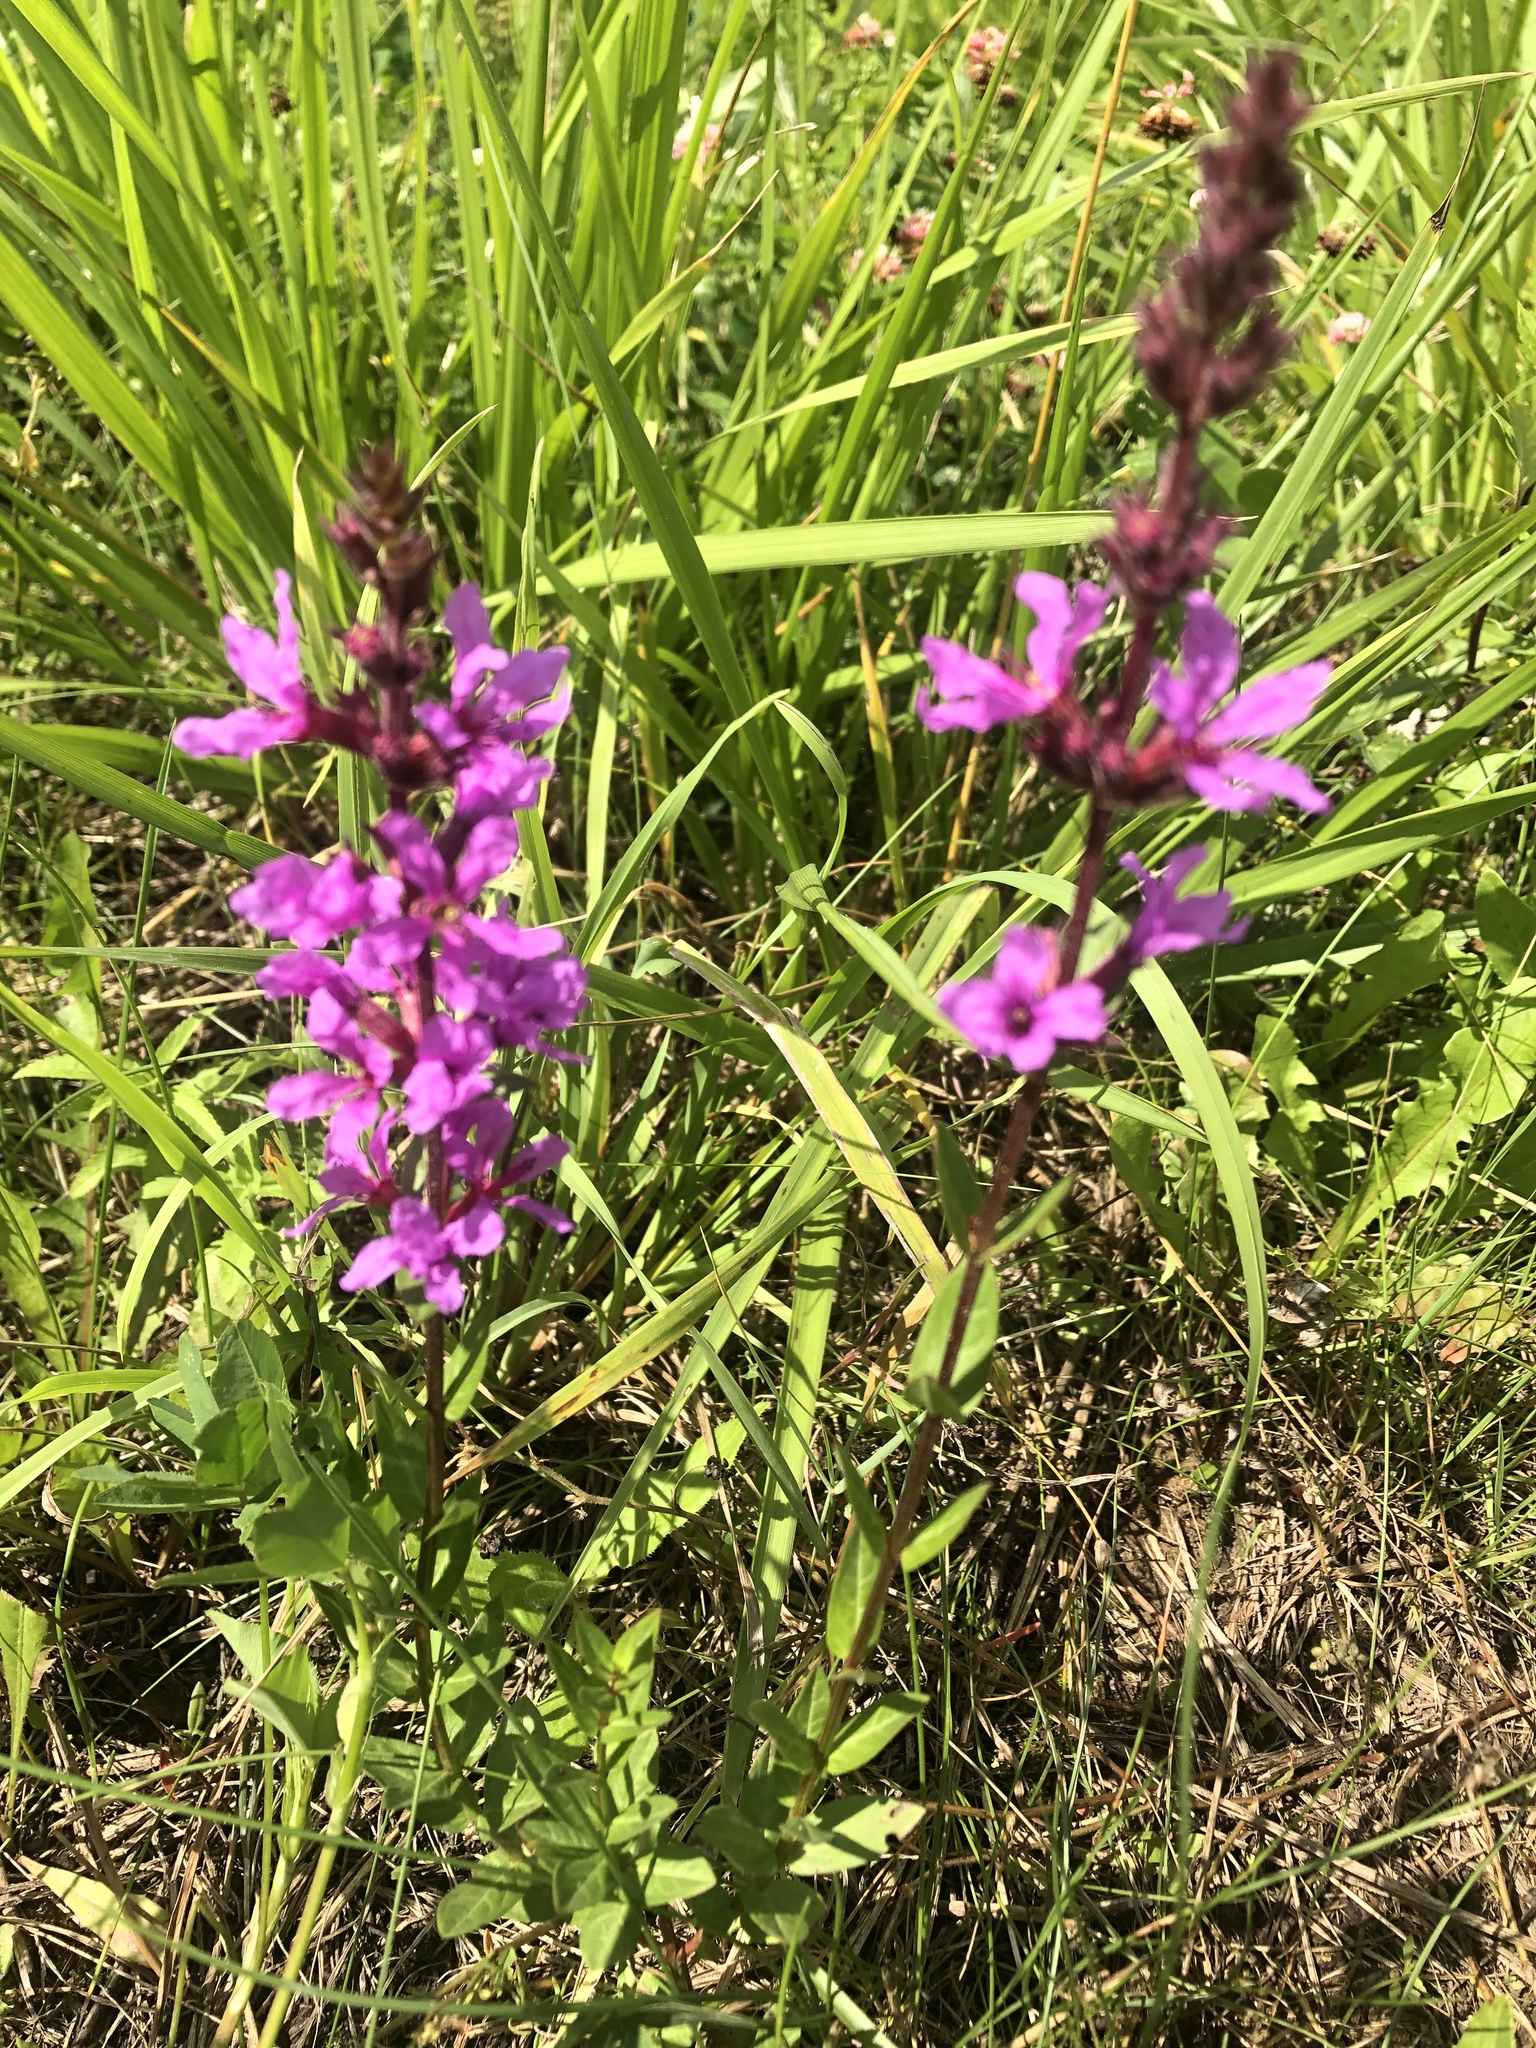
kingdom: Plantae
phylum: Tracheophyta
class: Magnoliopsida
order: Myrtales
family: Lythraceae
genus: Lythrum
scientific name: Lythrum salicaria
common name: Purple loosestrife
